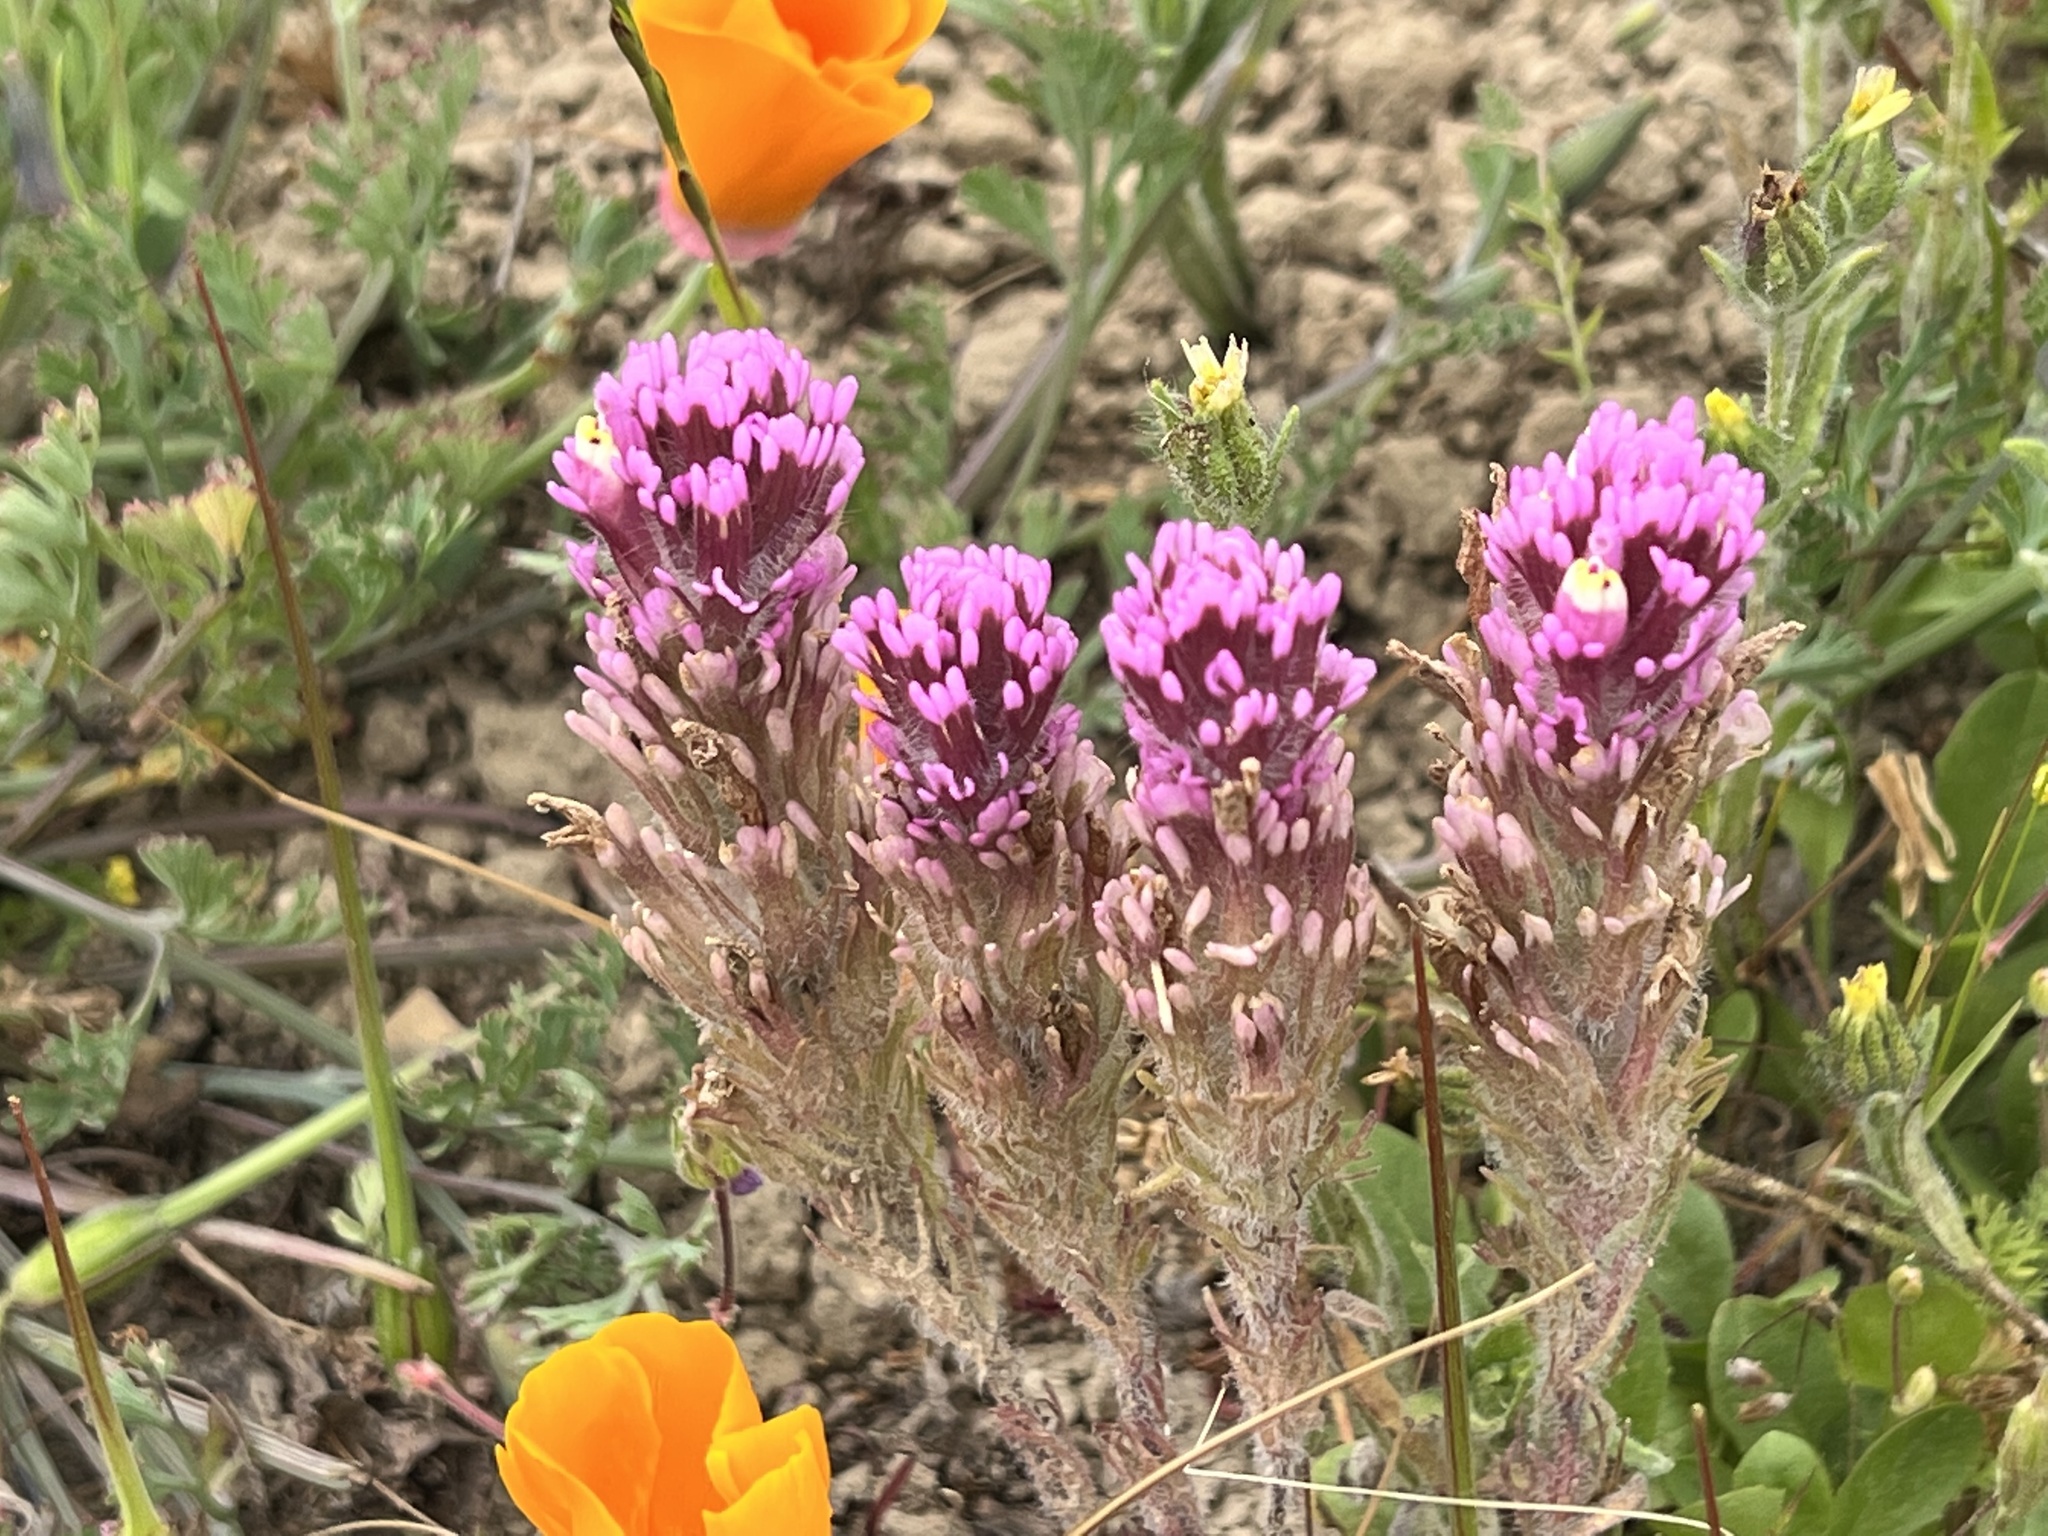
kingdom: Plantae
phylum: Tracheophyta
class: Magnoliopsida
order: Lamiales
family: Orobanchaceae
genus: Castilleja
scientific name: Castilleja exserta
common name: Purple owl-clover
